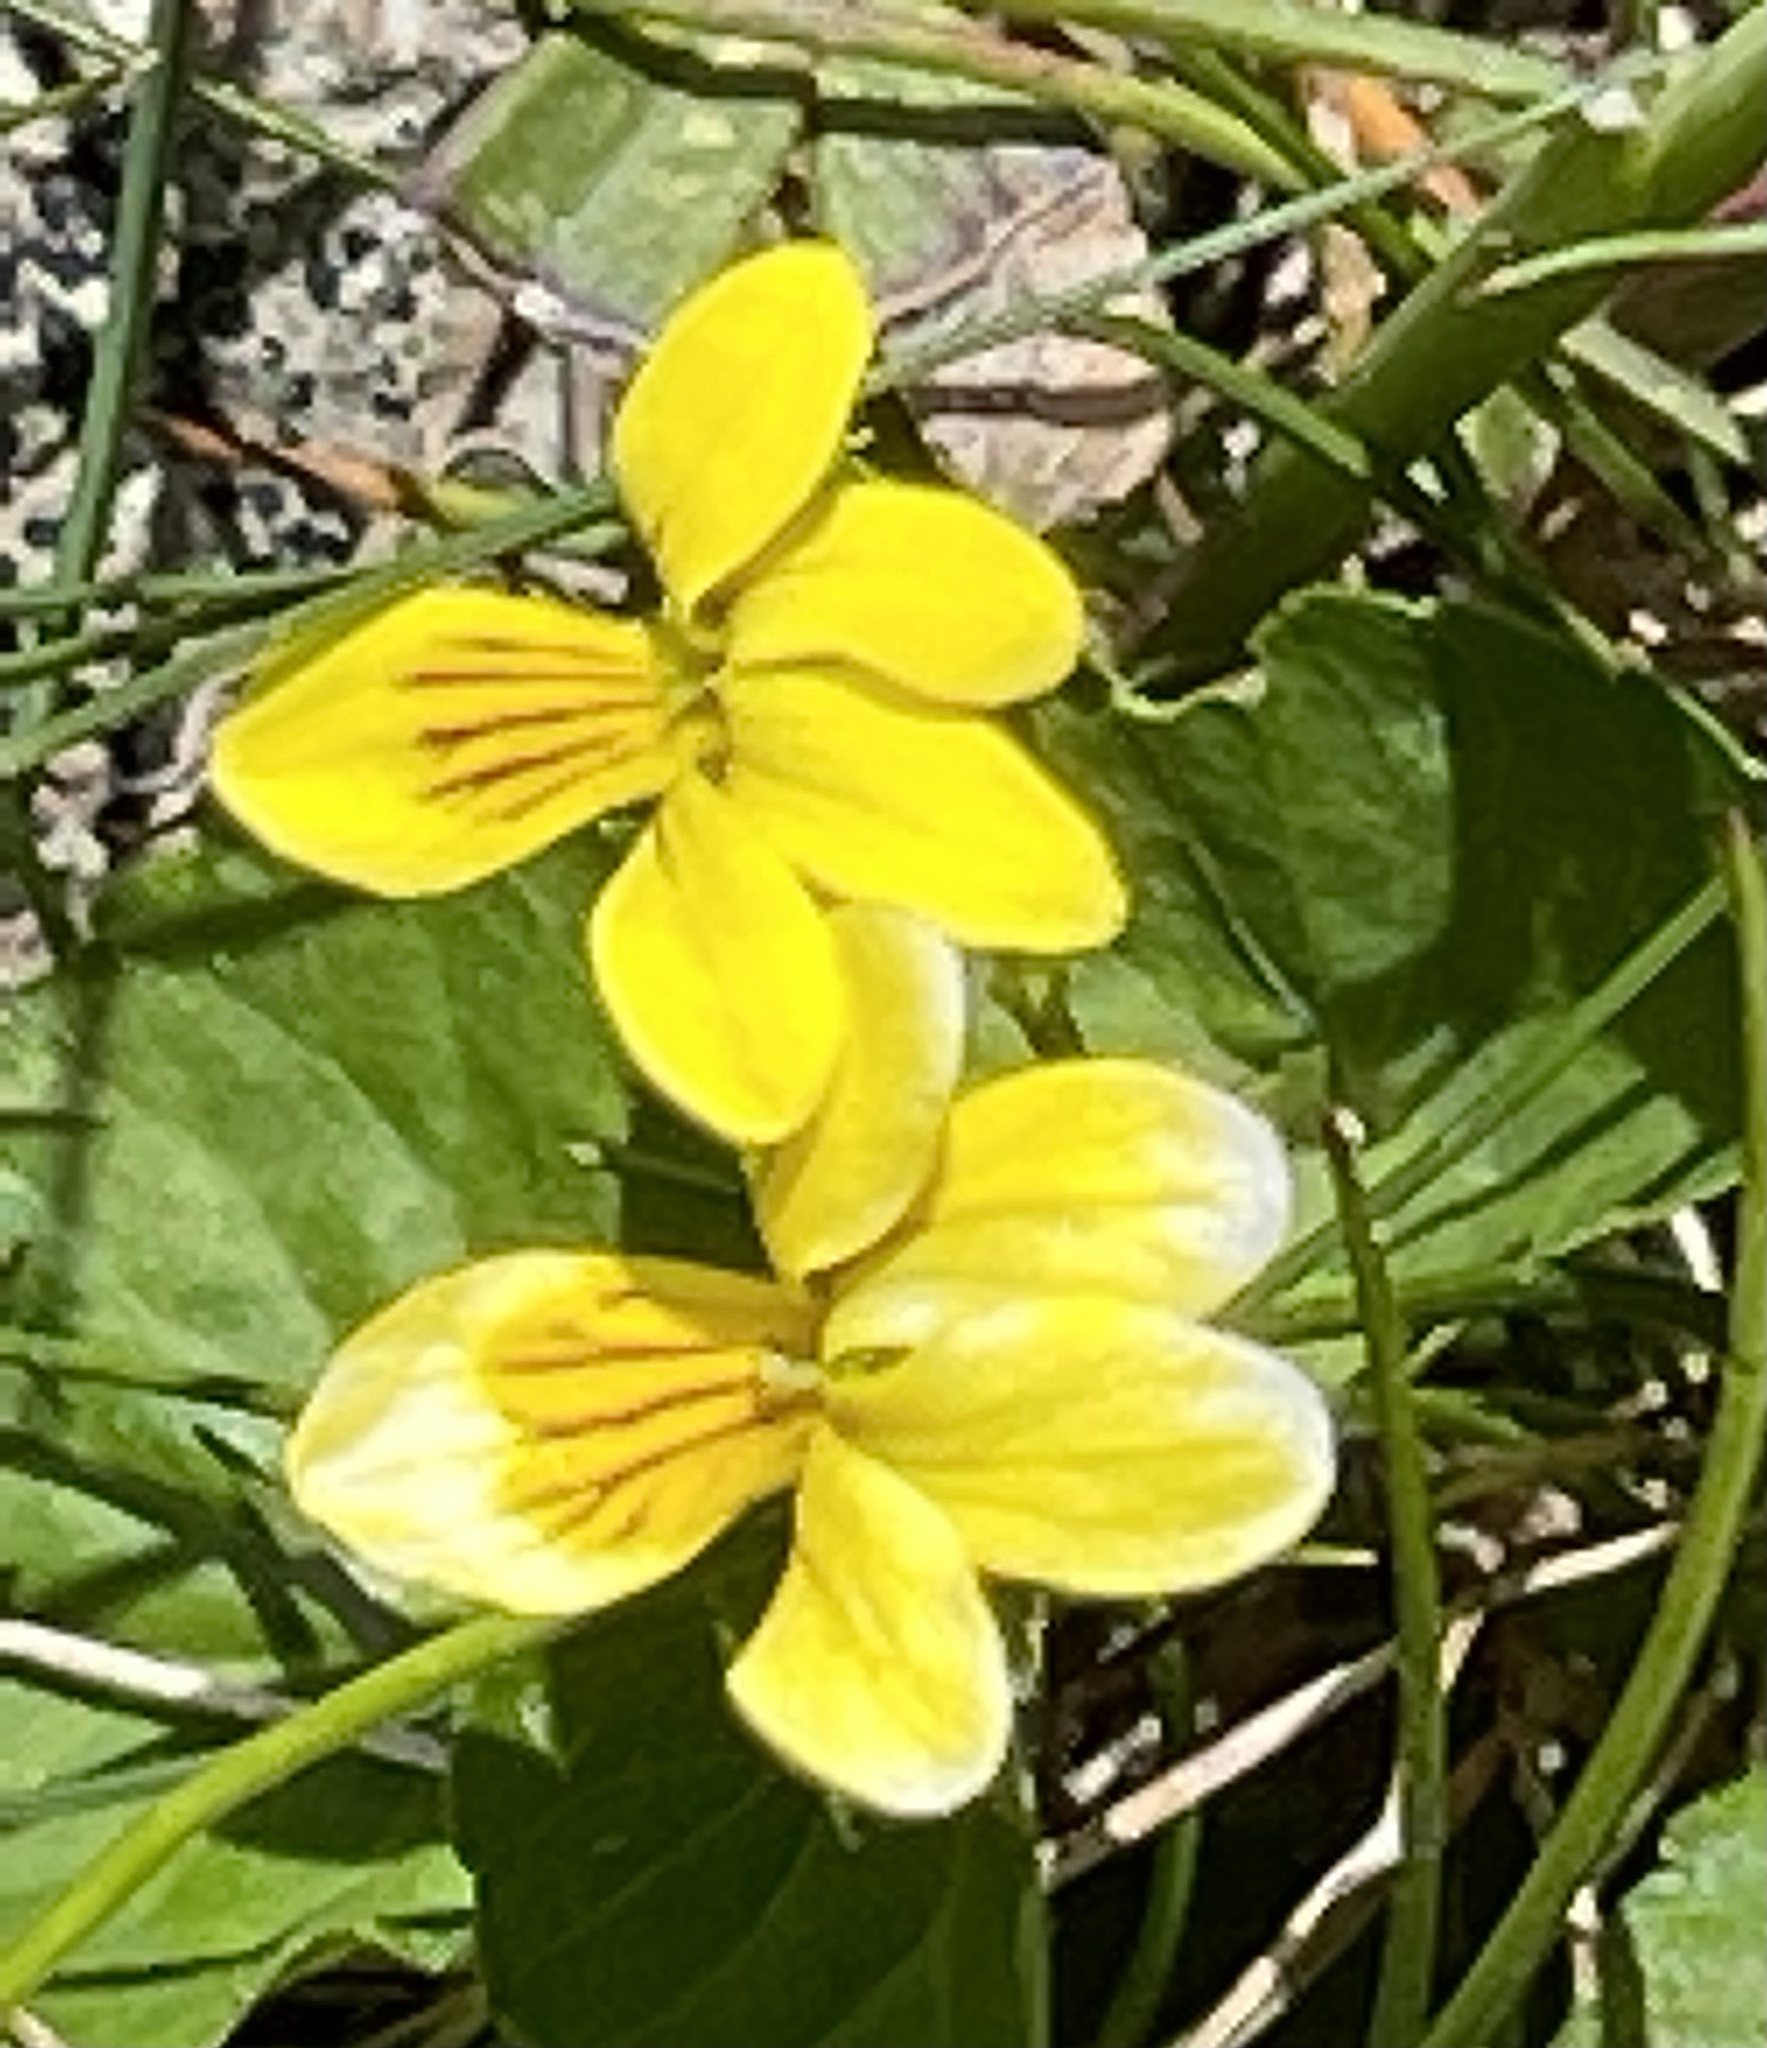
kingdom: Plantae
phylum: Tracheophyta
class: Magnoliopsida
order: Malpighiales
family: Violaceae
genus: Viola
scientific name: Viola biflora
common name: Alpine yellow violet
